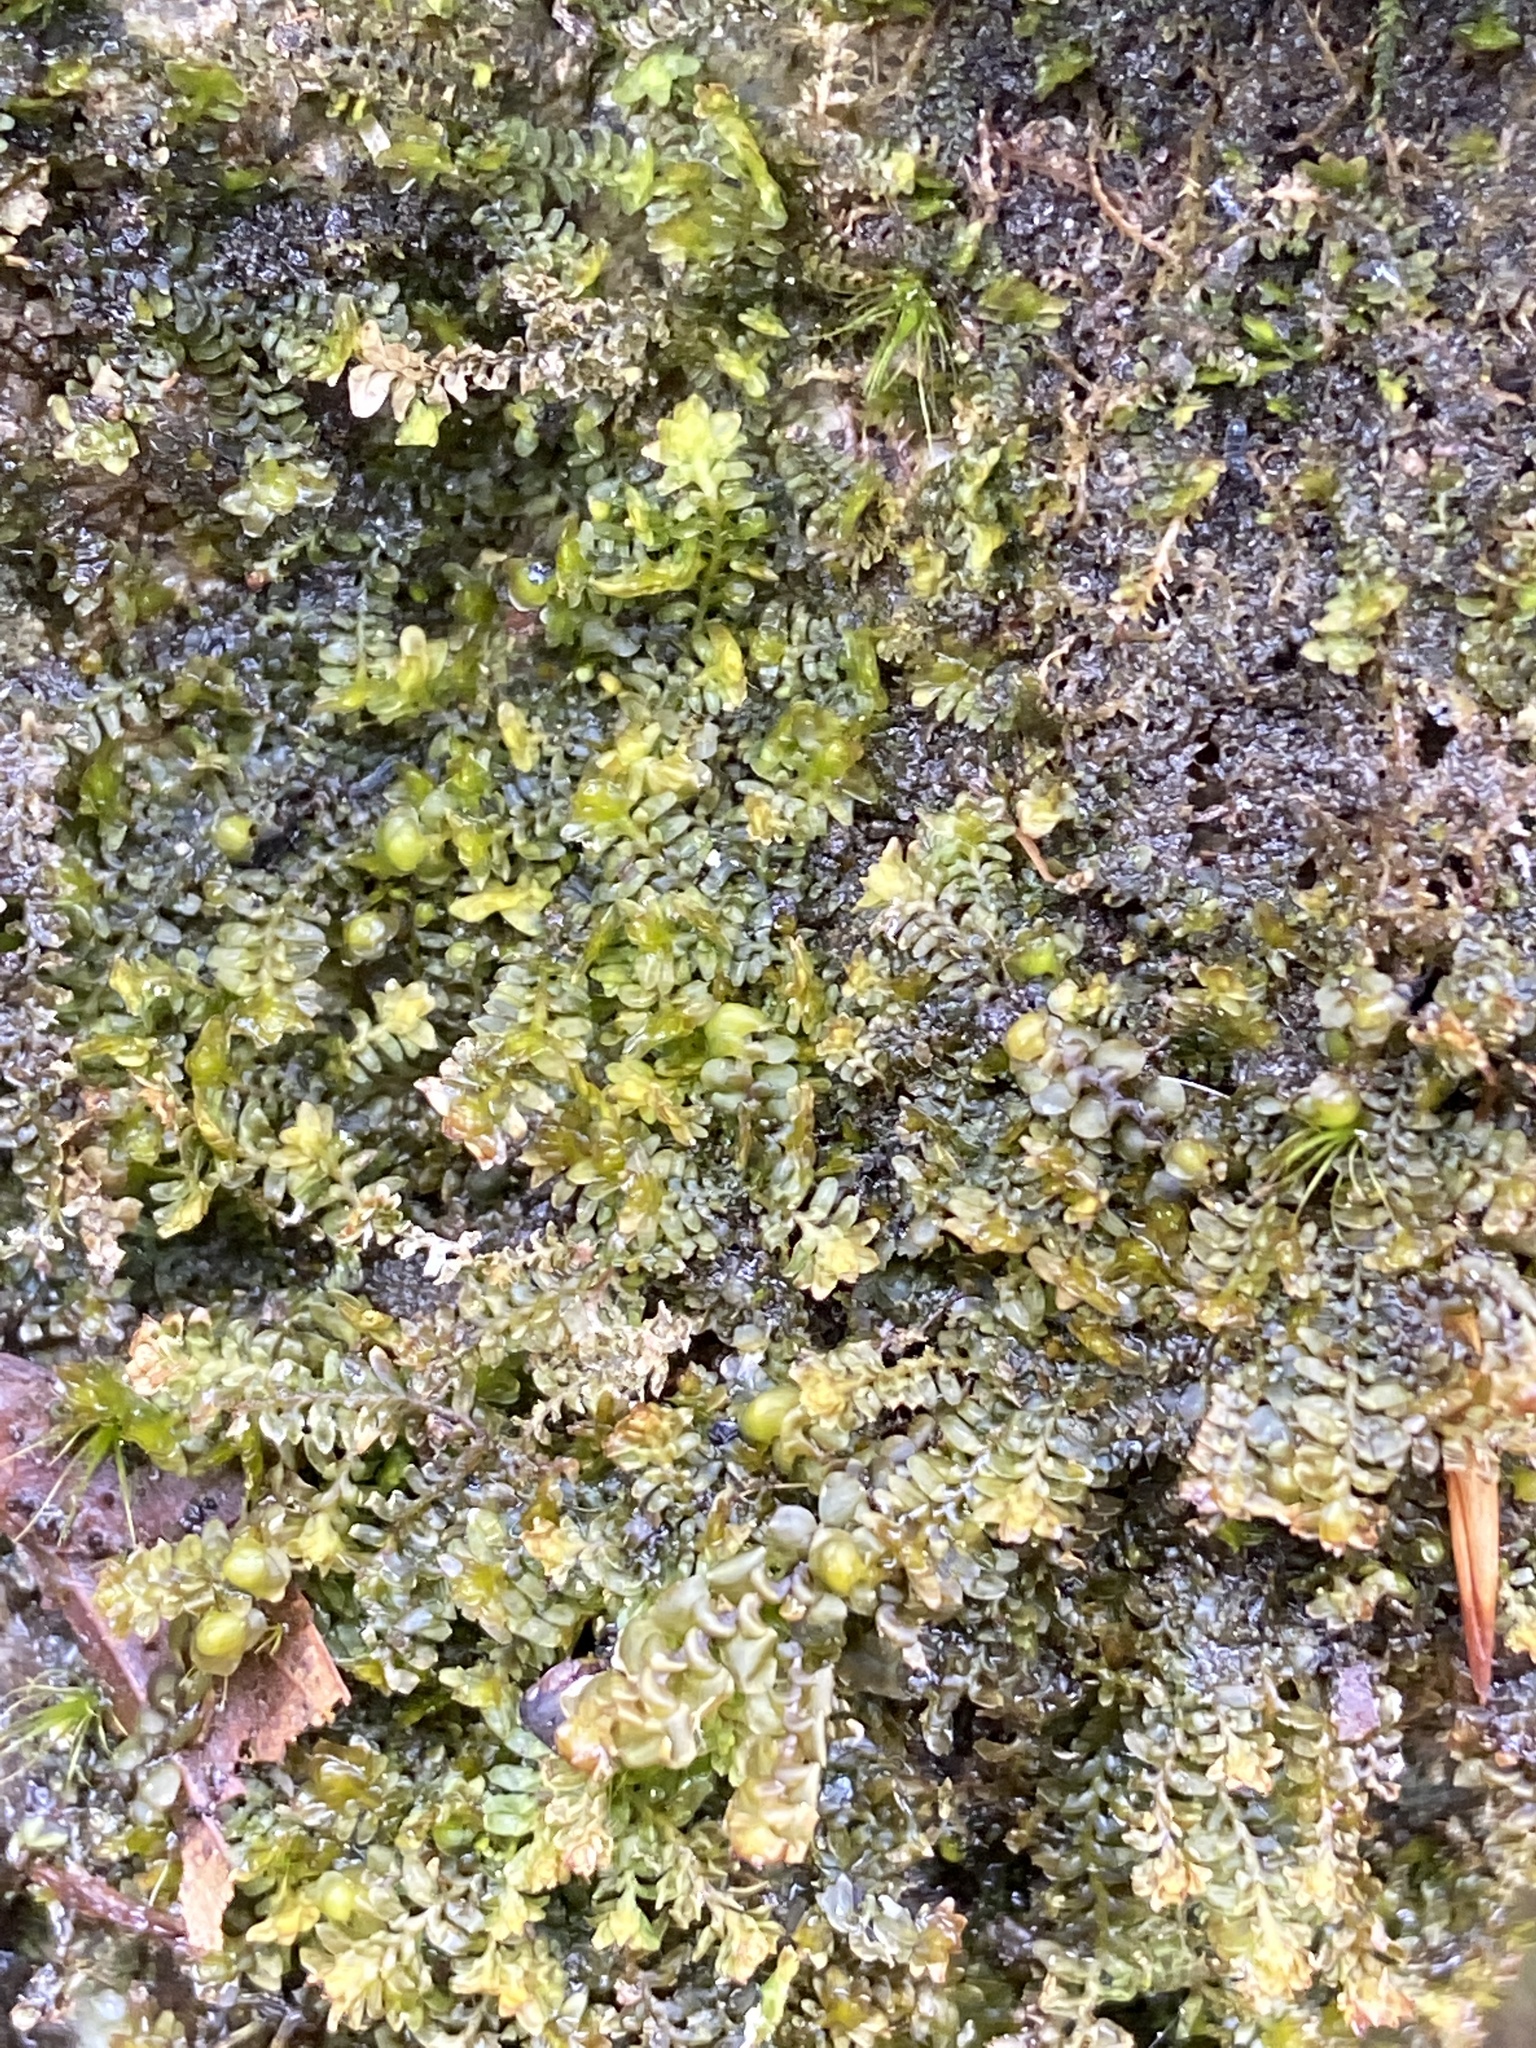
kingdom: Plantae
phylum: Marchantiophyta
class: Jungermanniopsida
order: Jungermanniales
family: Scapaniaceae
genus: Diplophyllum
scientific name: Diplophyllum albicans
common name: White earwort
